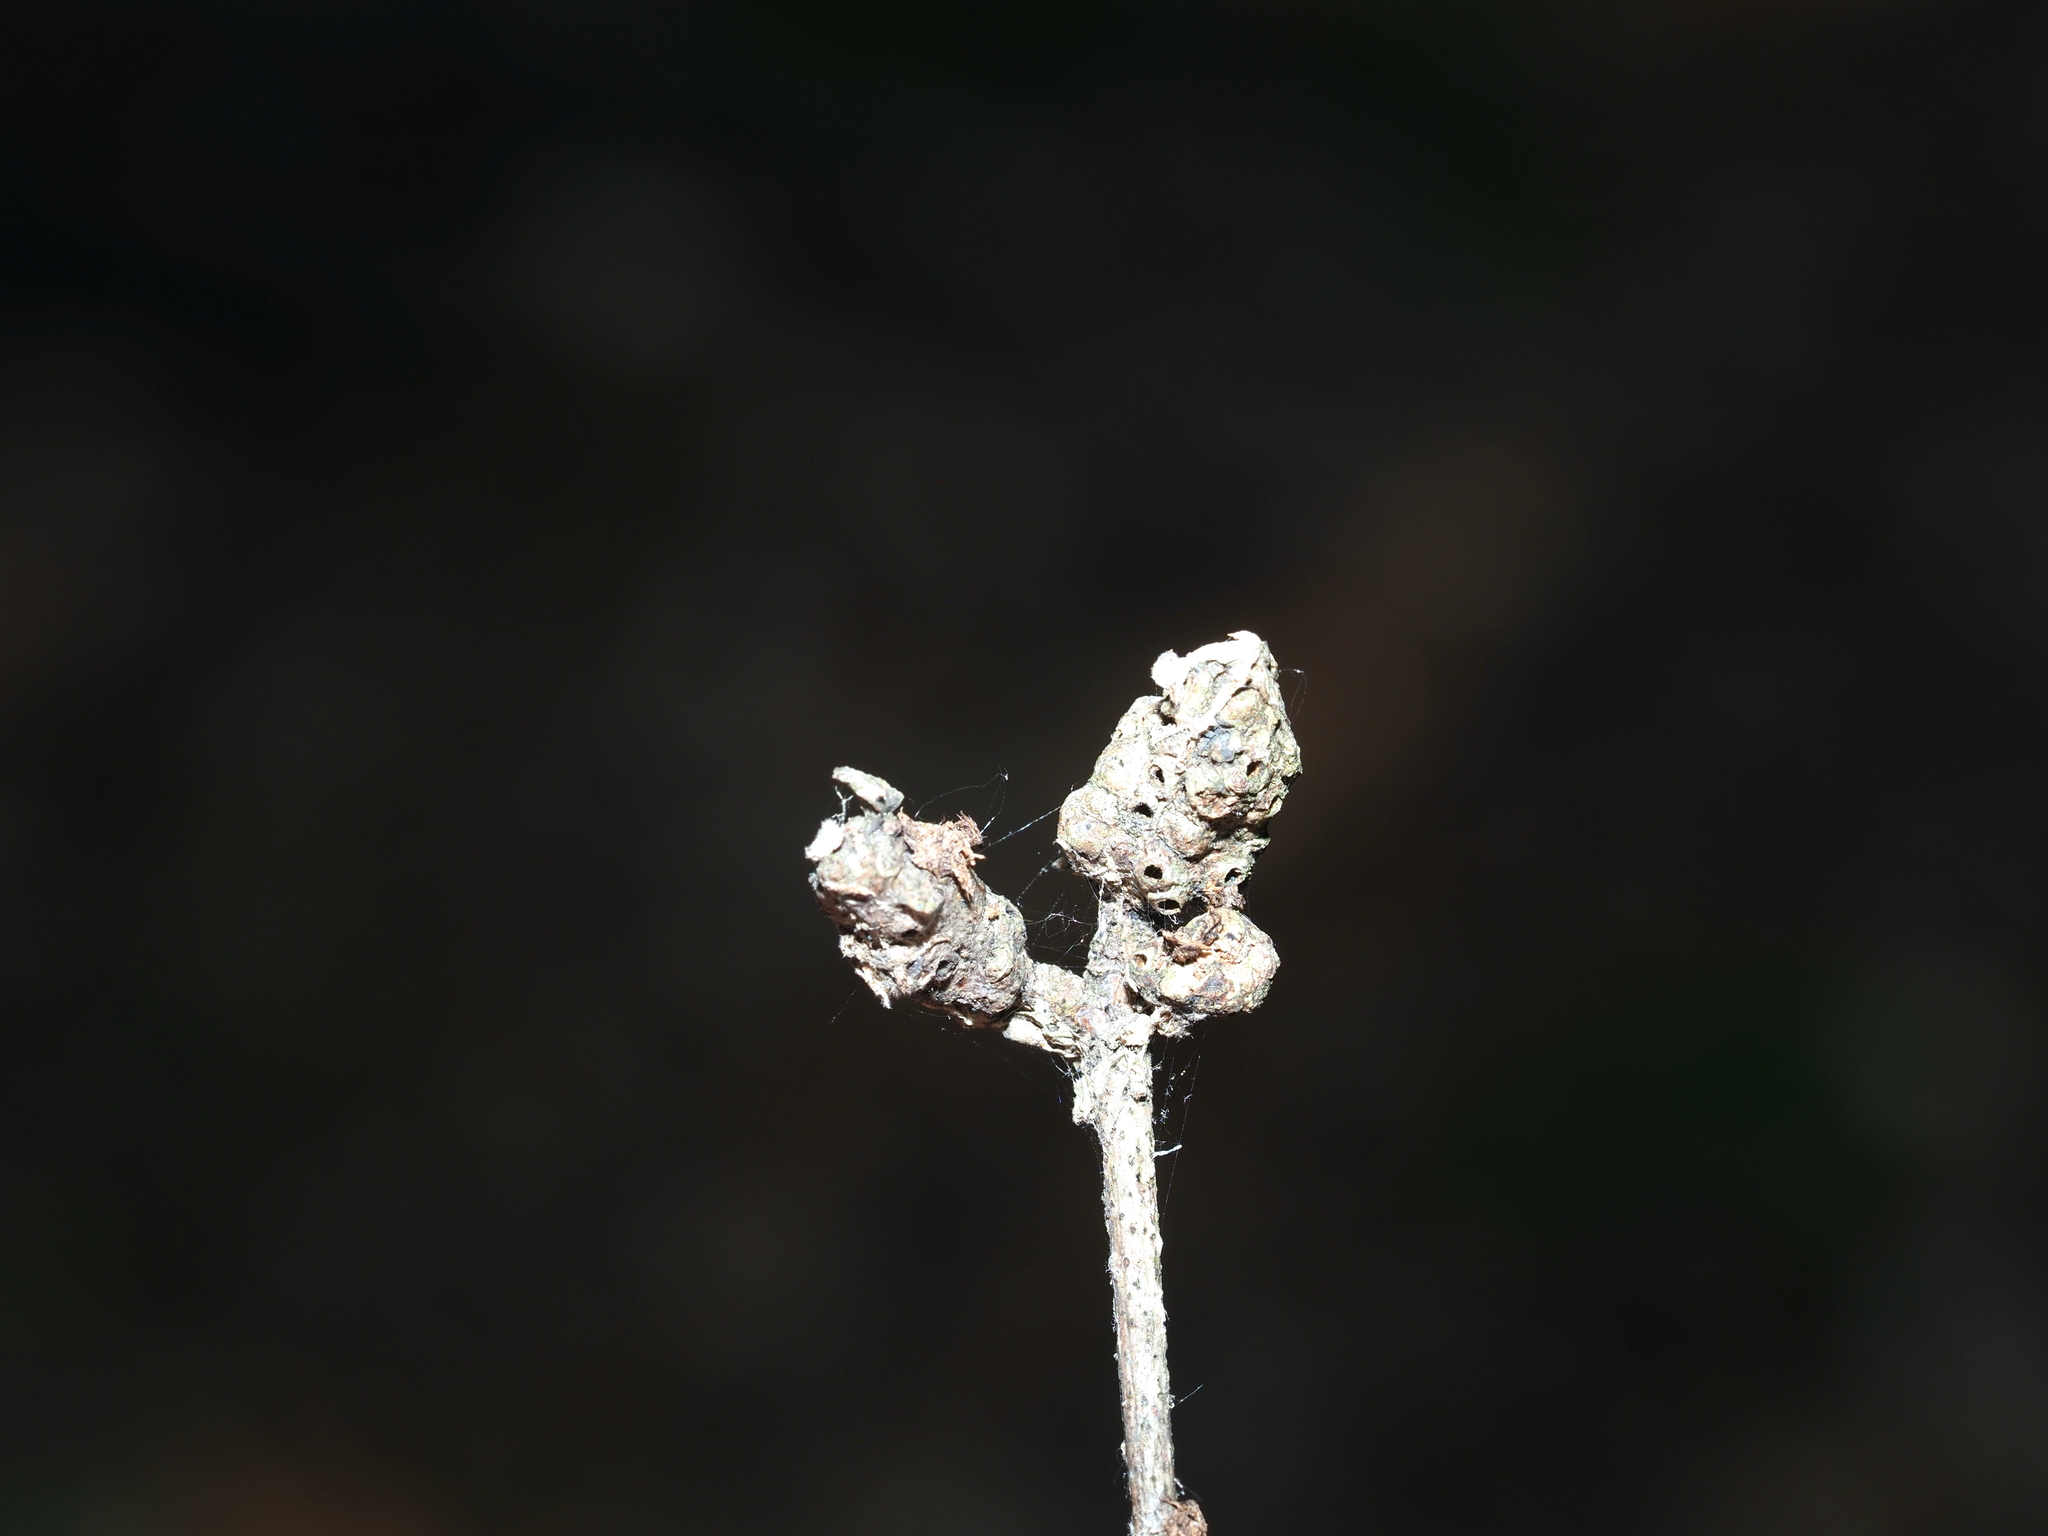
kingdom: Animalia
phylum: Arthropoda
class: Insecta
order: Hymenoptera
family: Cynipidae
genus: Callirhytis
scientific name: Callirhytis
